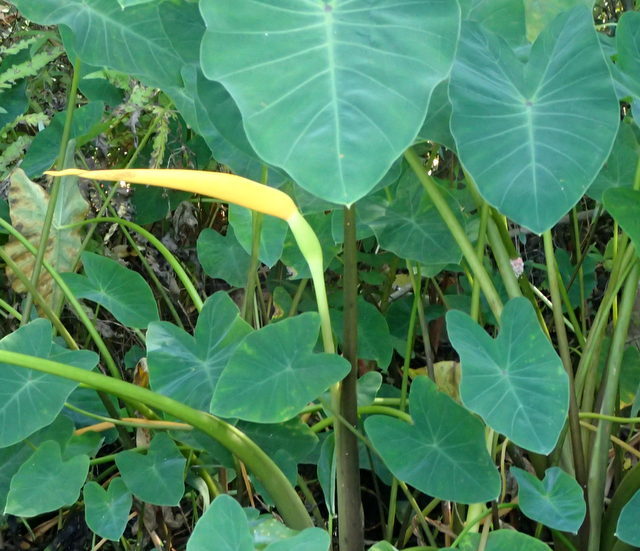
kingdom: Plantae
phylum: Tracheophyta
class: Liliopsida
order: Alismatales
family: Araceae
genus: Colocasia
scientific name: Colocasia esculenta
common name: Taro
